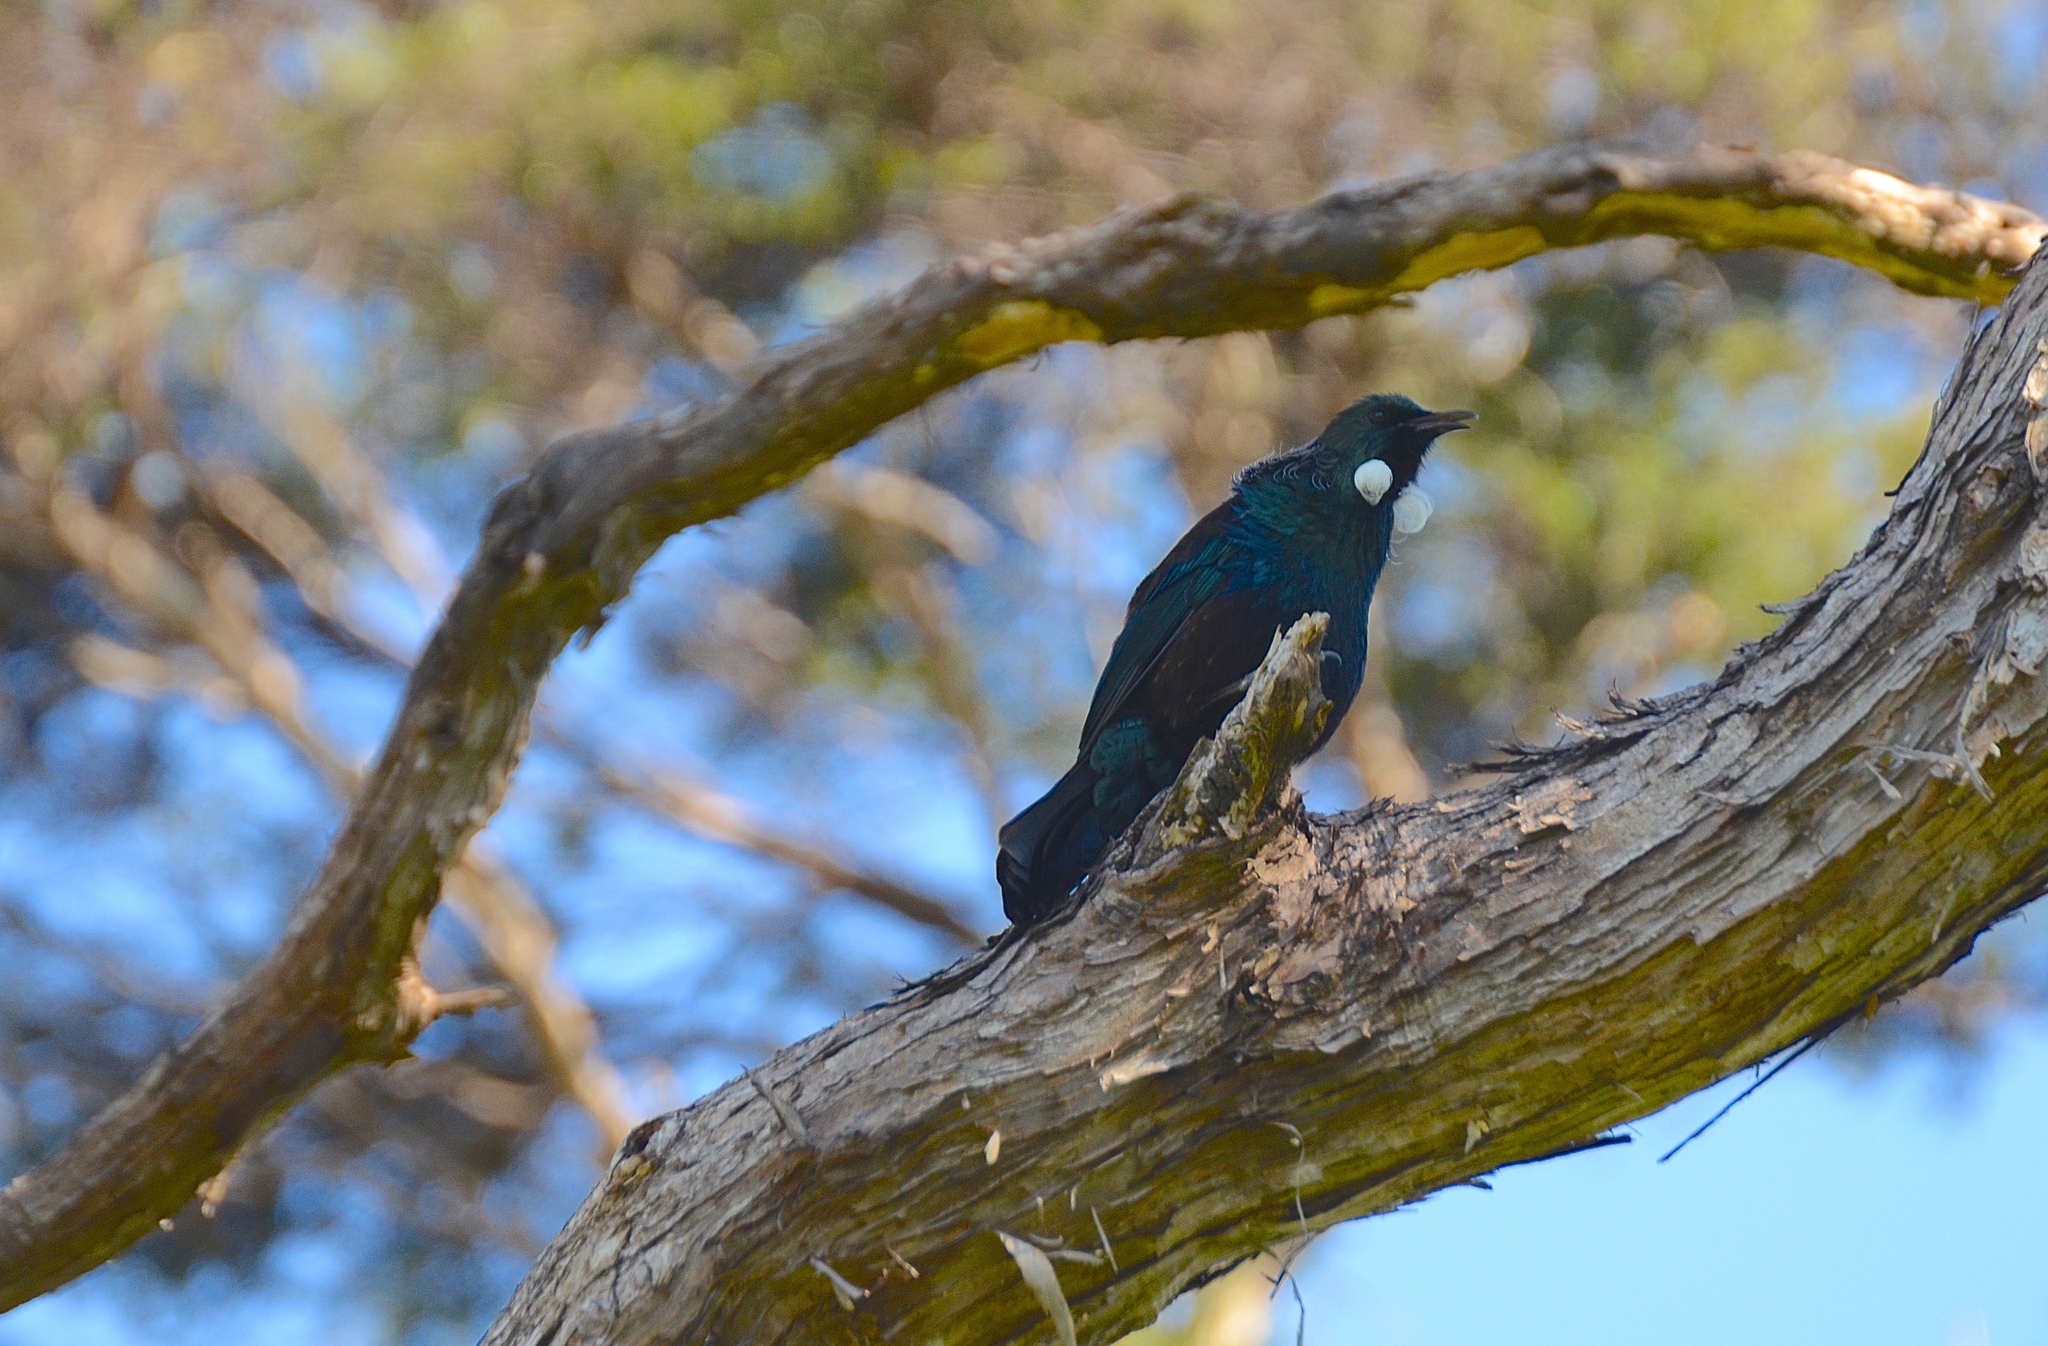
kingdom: Animalia
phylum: Chordata
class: Aves
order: Passeriformes
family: Meliphagidae
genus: Prosthemadera
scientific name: Prosthemadera novaeseelandiae
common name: Tui
